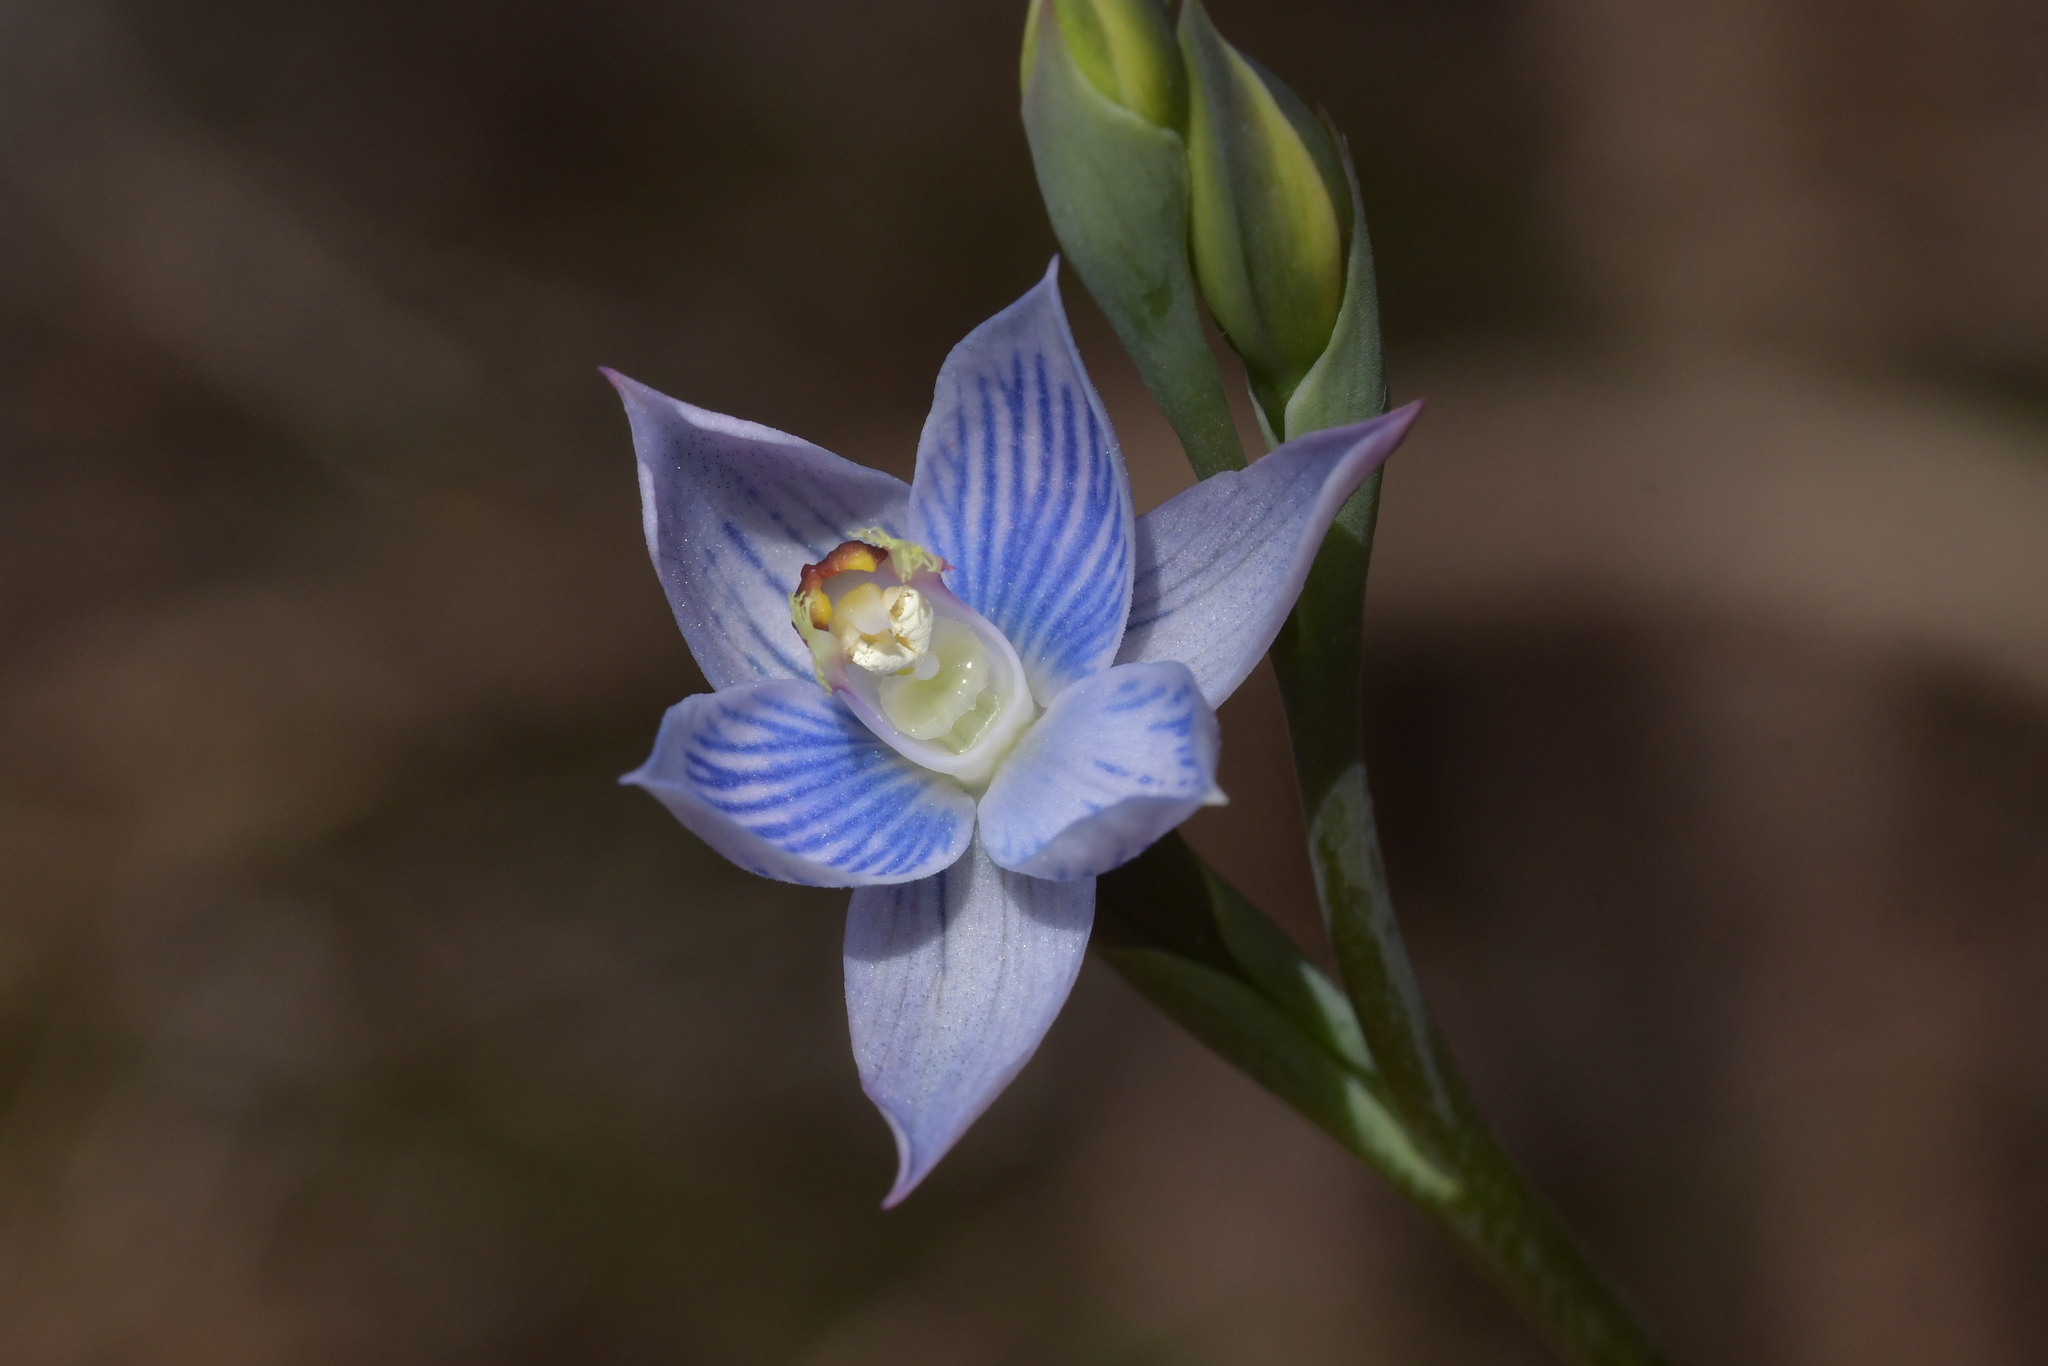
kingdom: Plantae
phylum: Tracheophyta
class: Liliopsida
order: Asparagales
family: Orchidaceae
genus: Thelymitra
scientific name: Thelymitra pulchella
